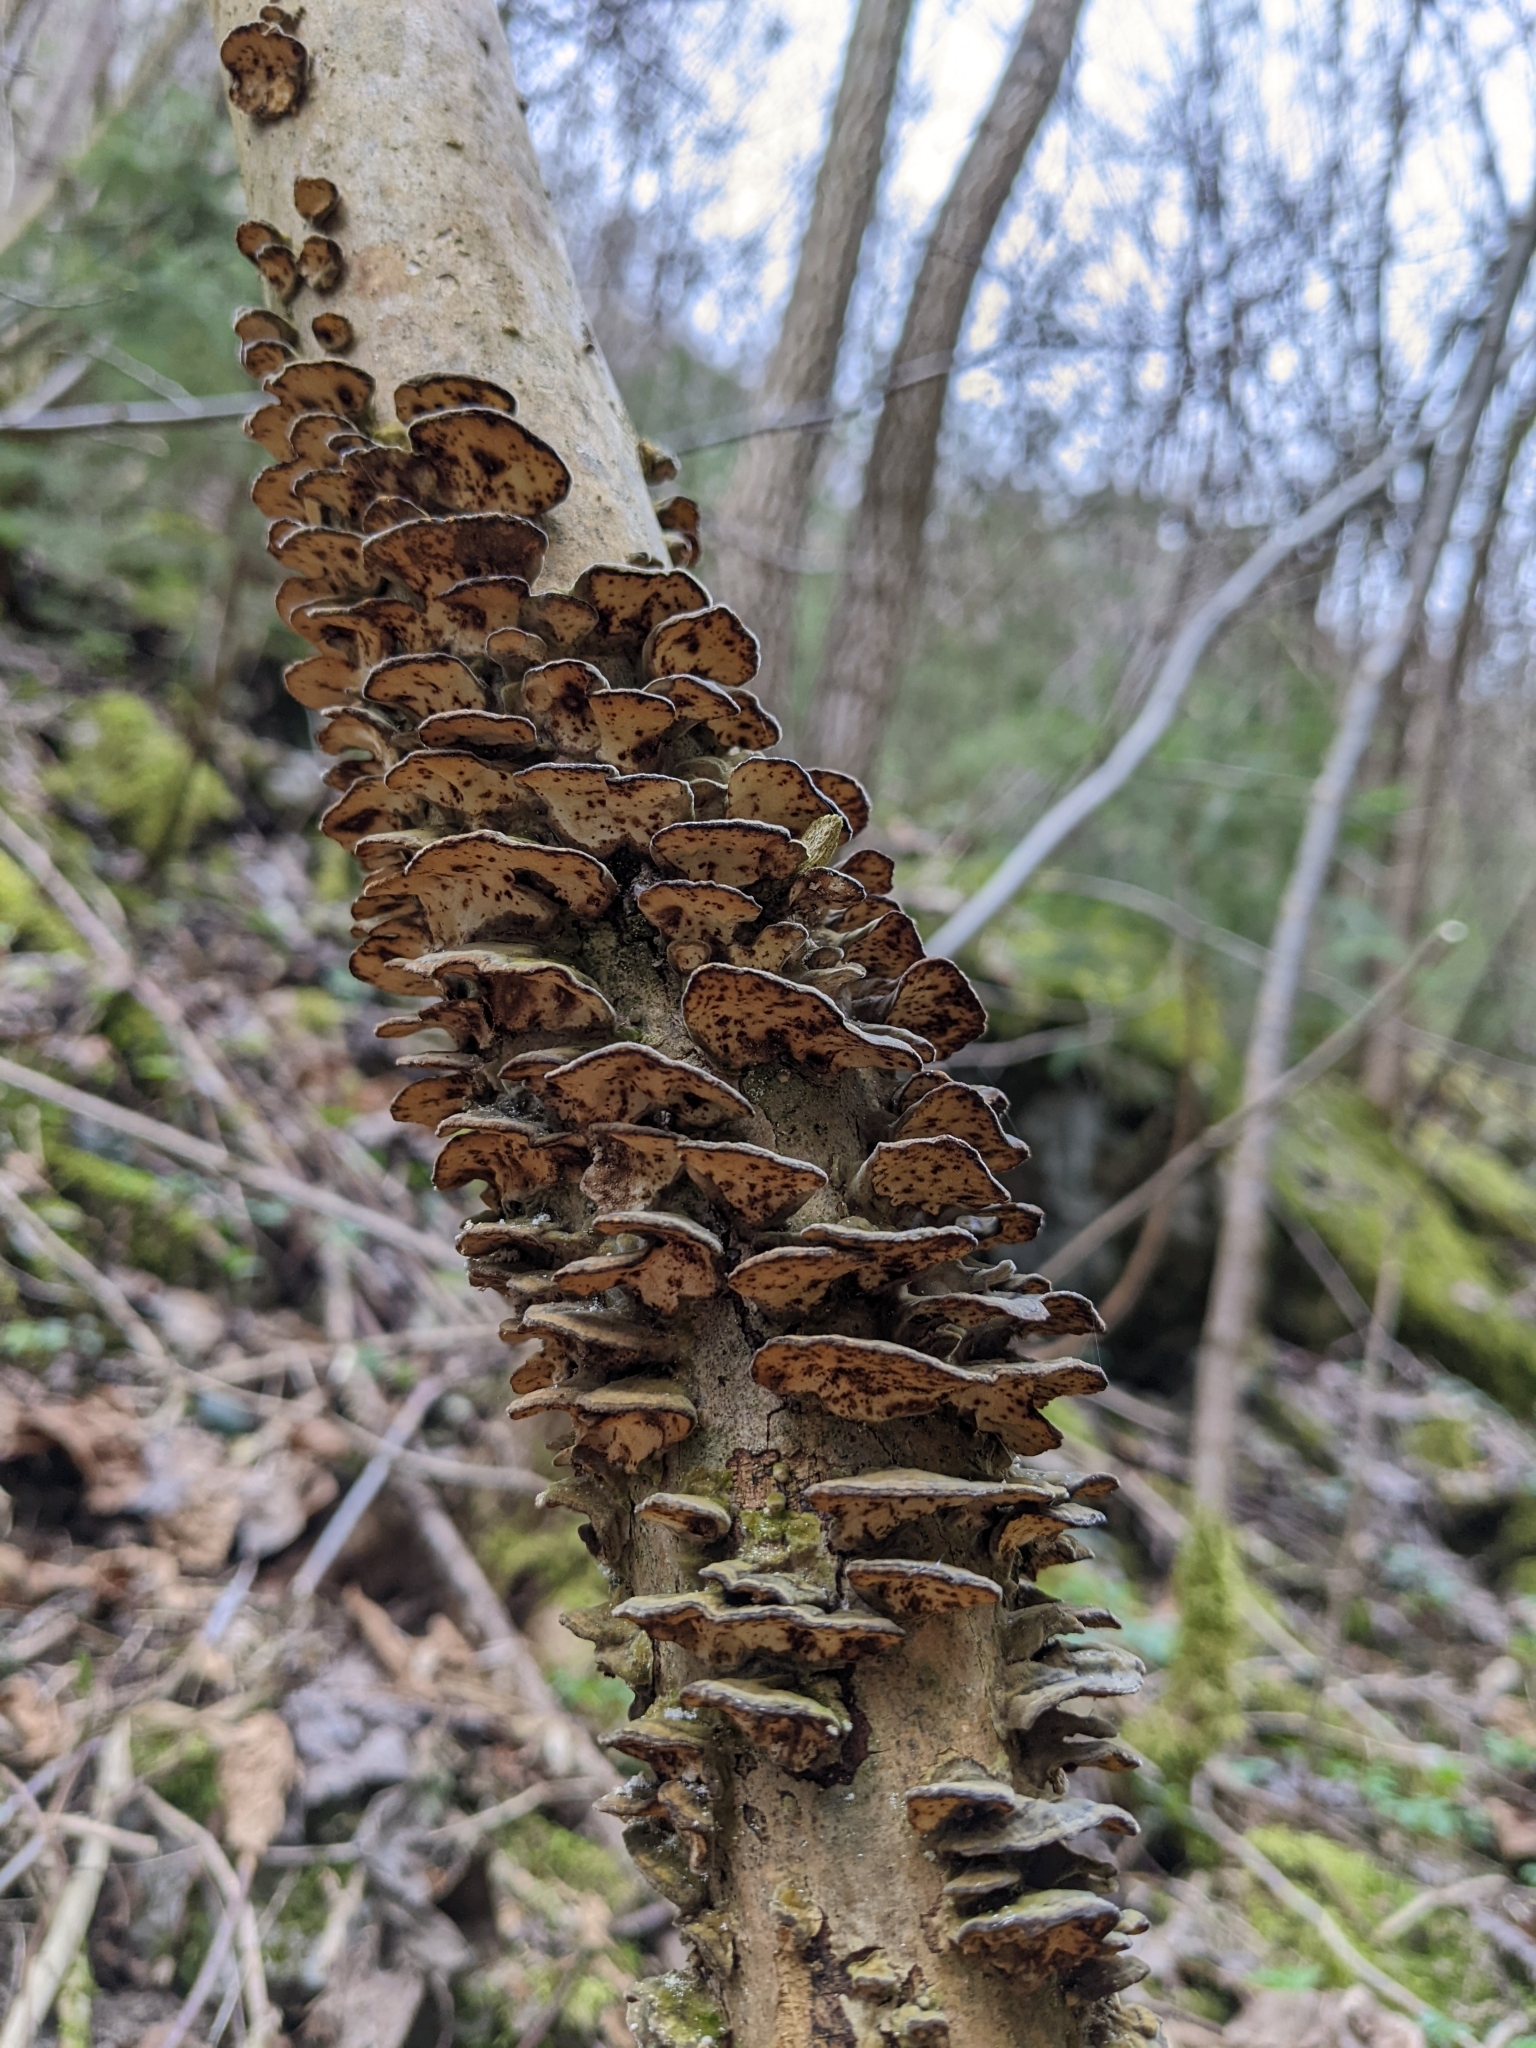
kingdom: Fungi
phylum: Basidiomycota
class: Agaricomycetes
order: Polyporales
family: Polyporaceae
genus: Trametes
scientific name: Trametes versicolor
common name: Turkeytail
